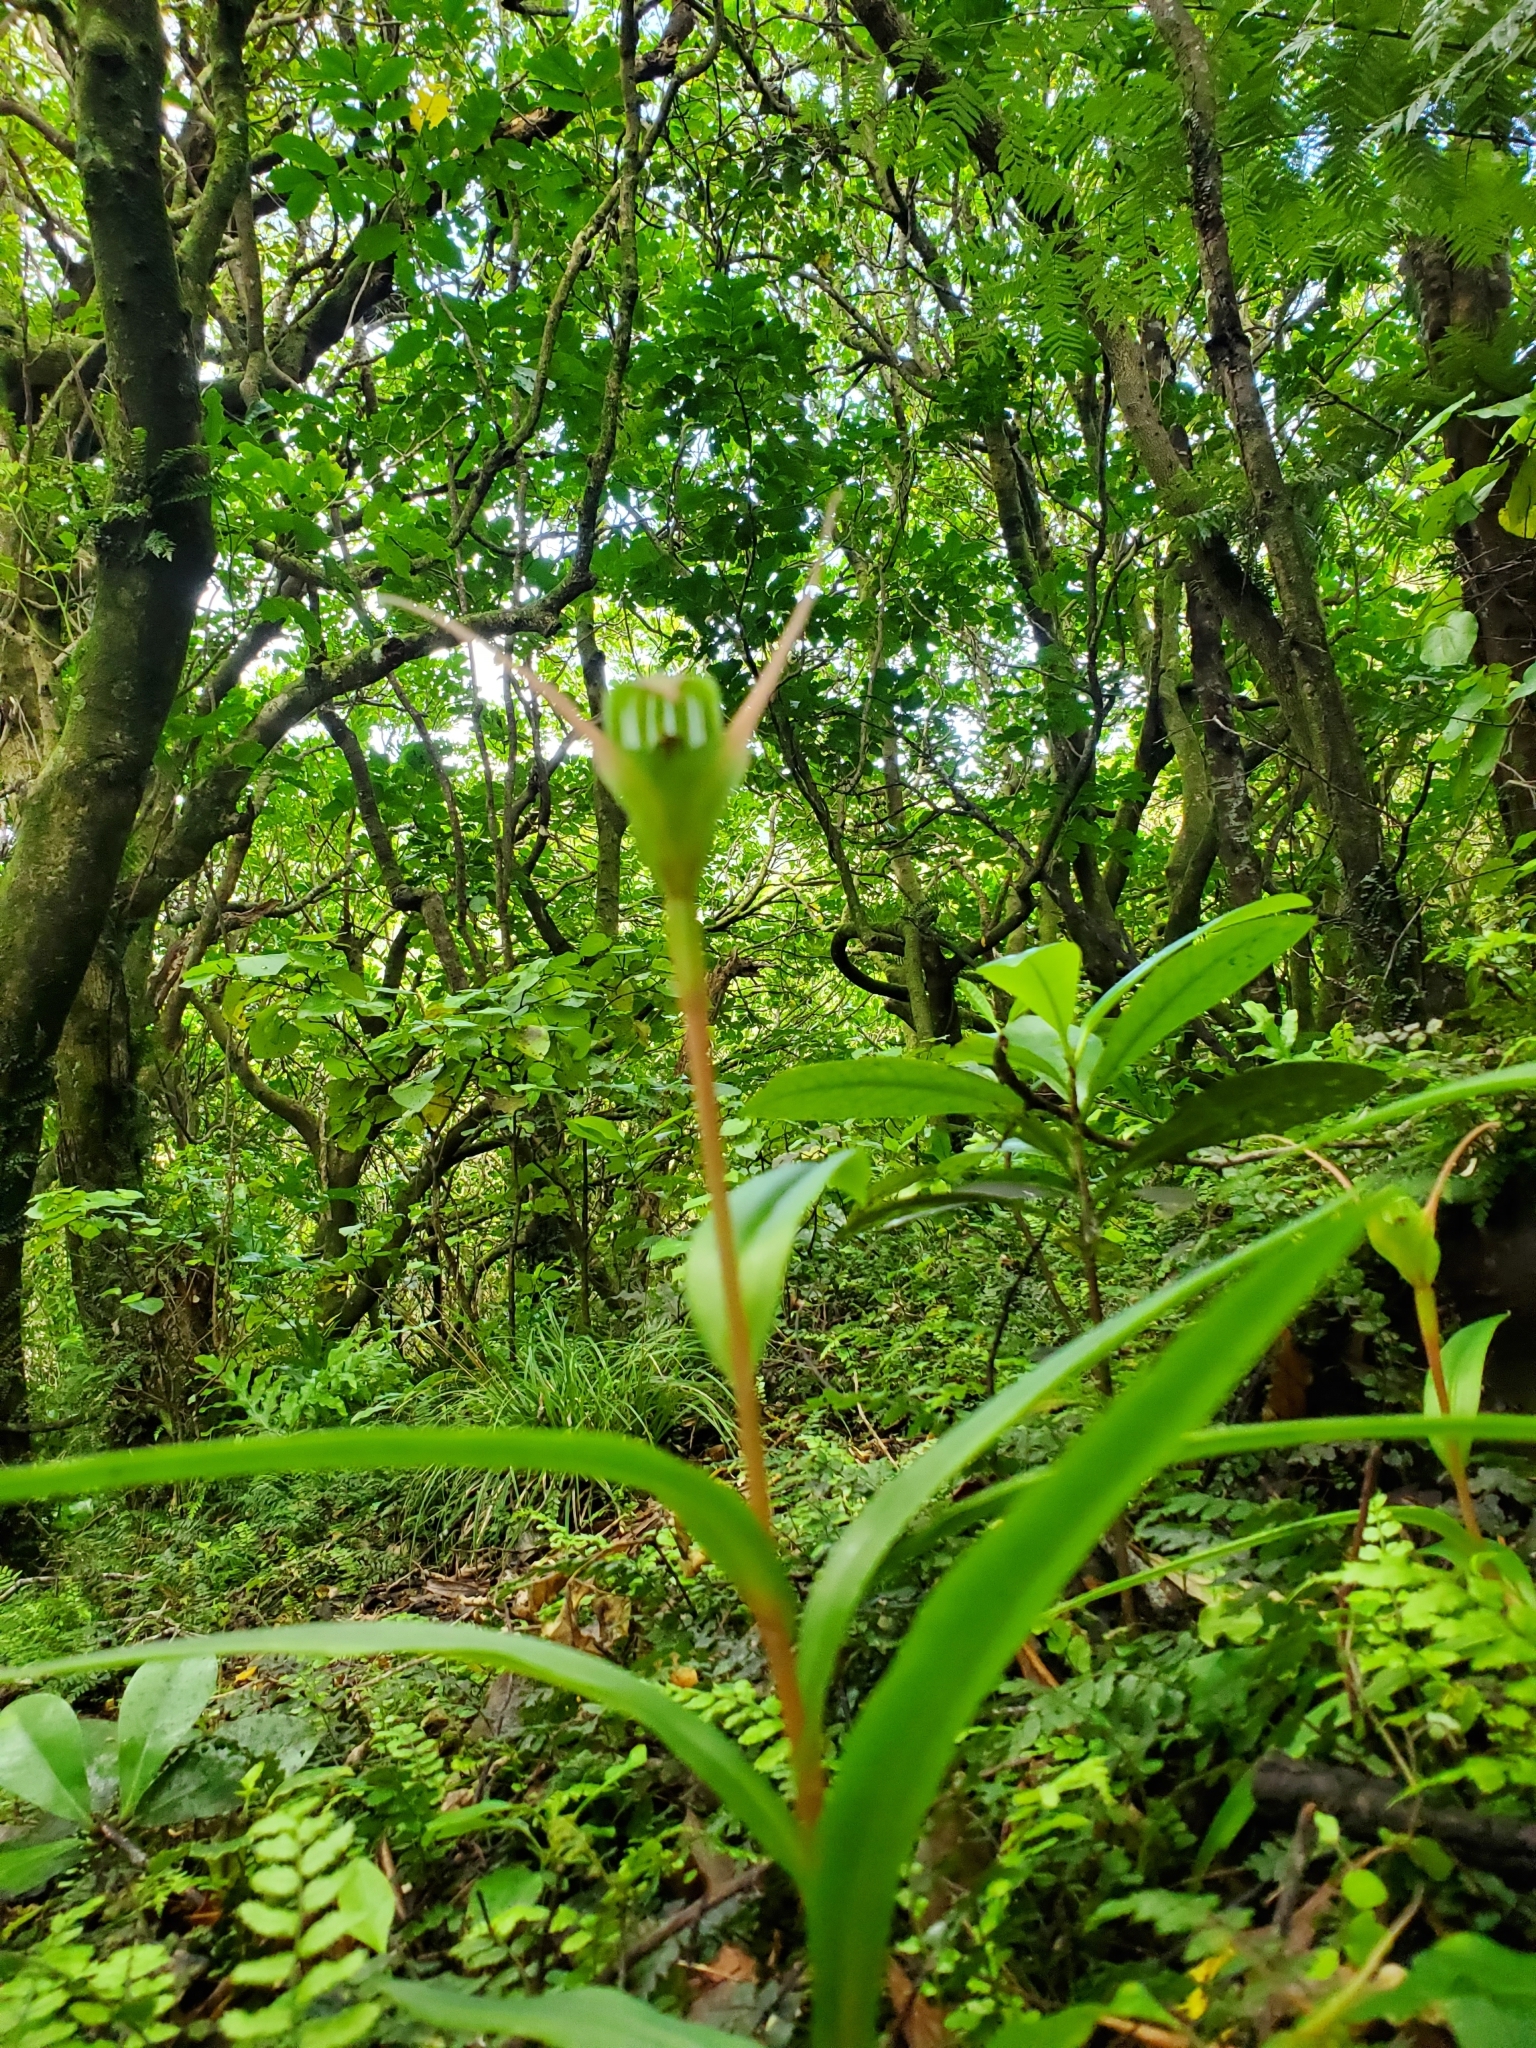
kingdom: Plantae
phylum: Tracheophyta
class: Liliopsida
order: Asparagales
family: Orchidaceae
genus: Pterostylis
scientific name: Pterostylis banksii
